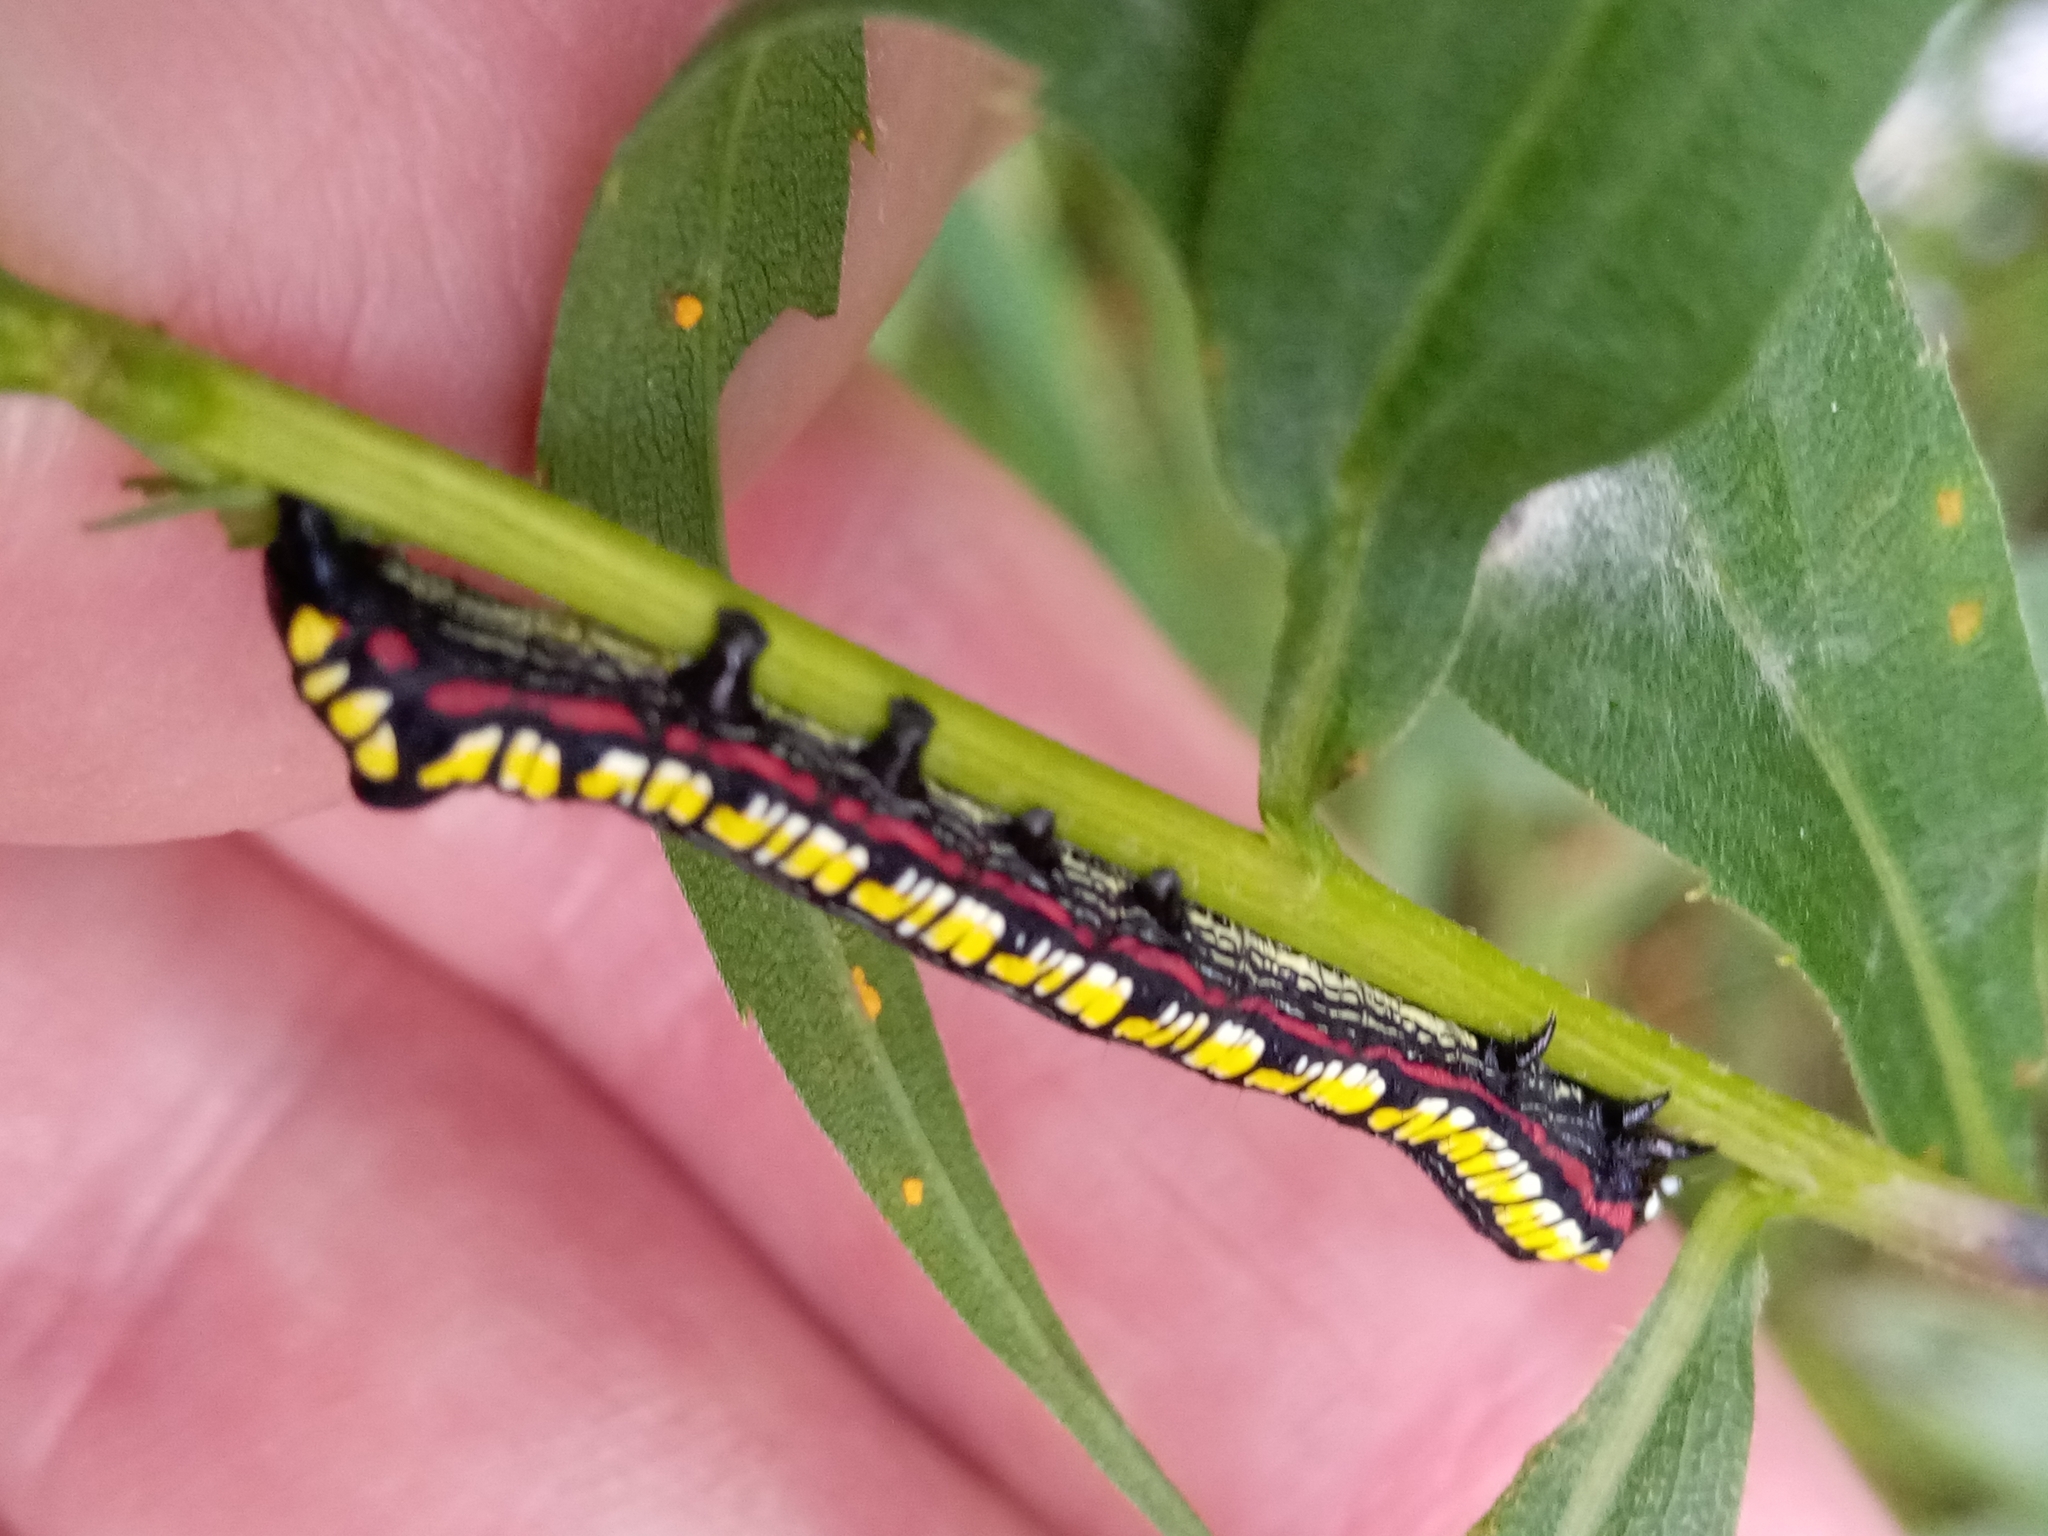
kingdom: Animalia
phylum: Arthropoda
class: Insecta
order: Lepidoptera
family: Noctuidae
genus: Cucullia
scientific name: Cucullia convexipennis
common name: Brown-hooded owlet
